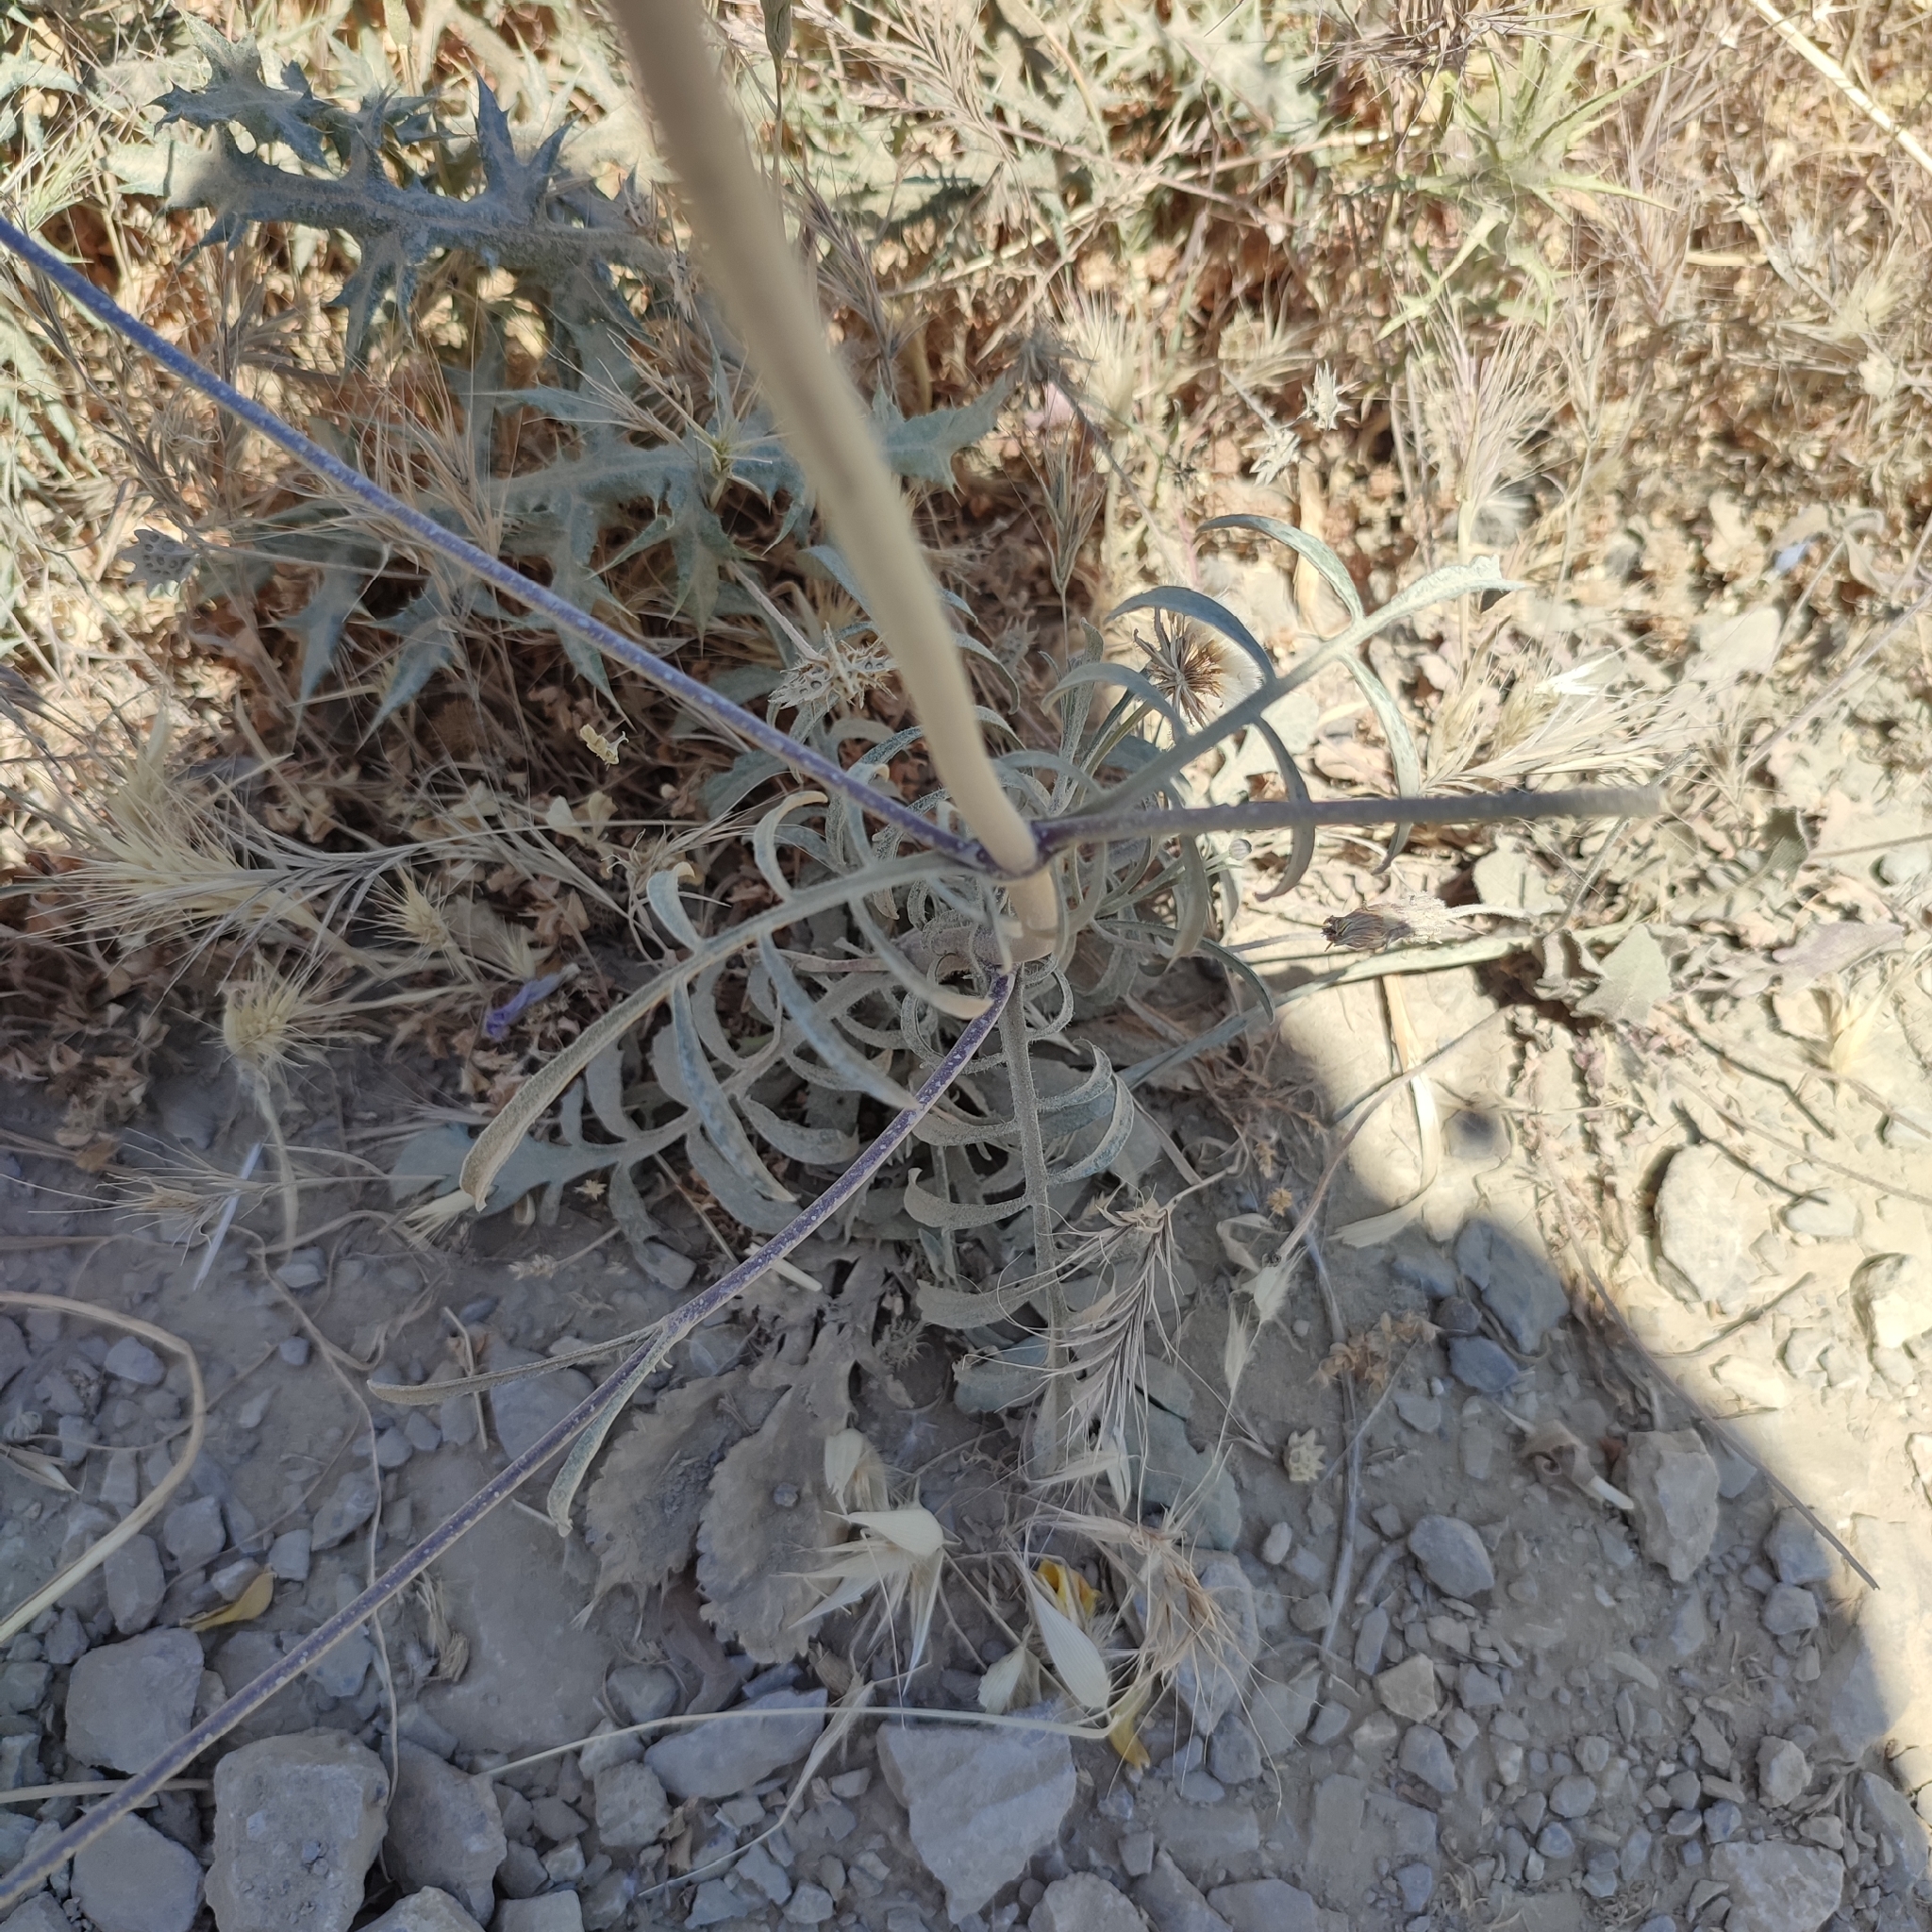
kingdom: Plantae
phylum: Tracheophyta
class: Magnoliopsida
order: Dipsacales
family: Caprifoliaceae
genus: Sixalix
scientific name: Sixalix atropurpurea
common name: Sweet scabious
